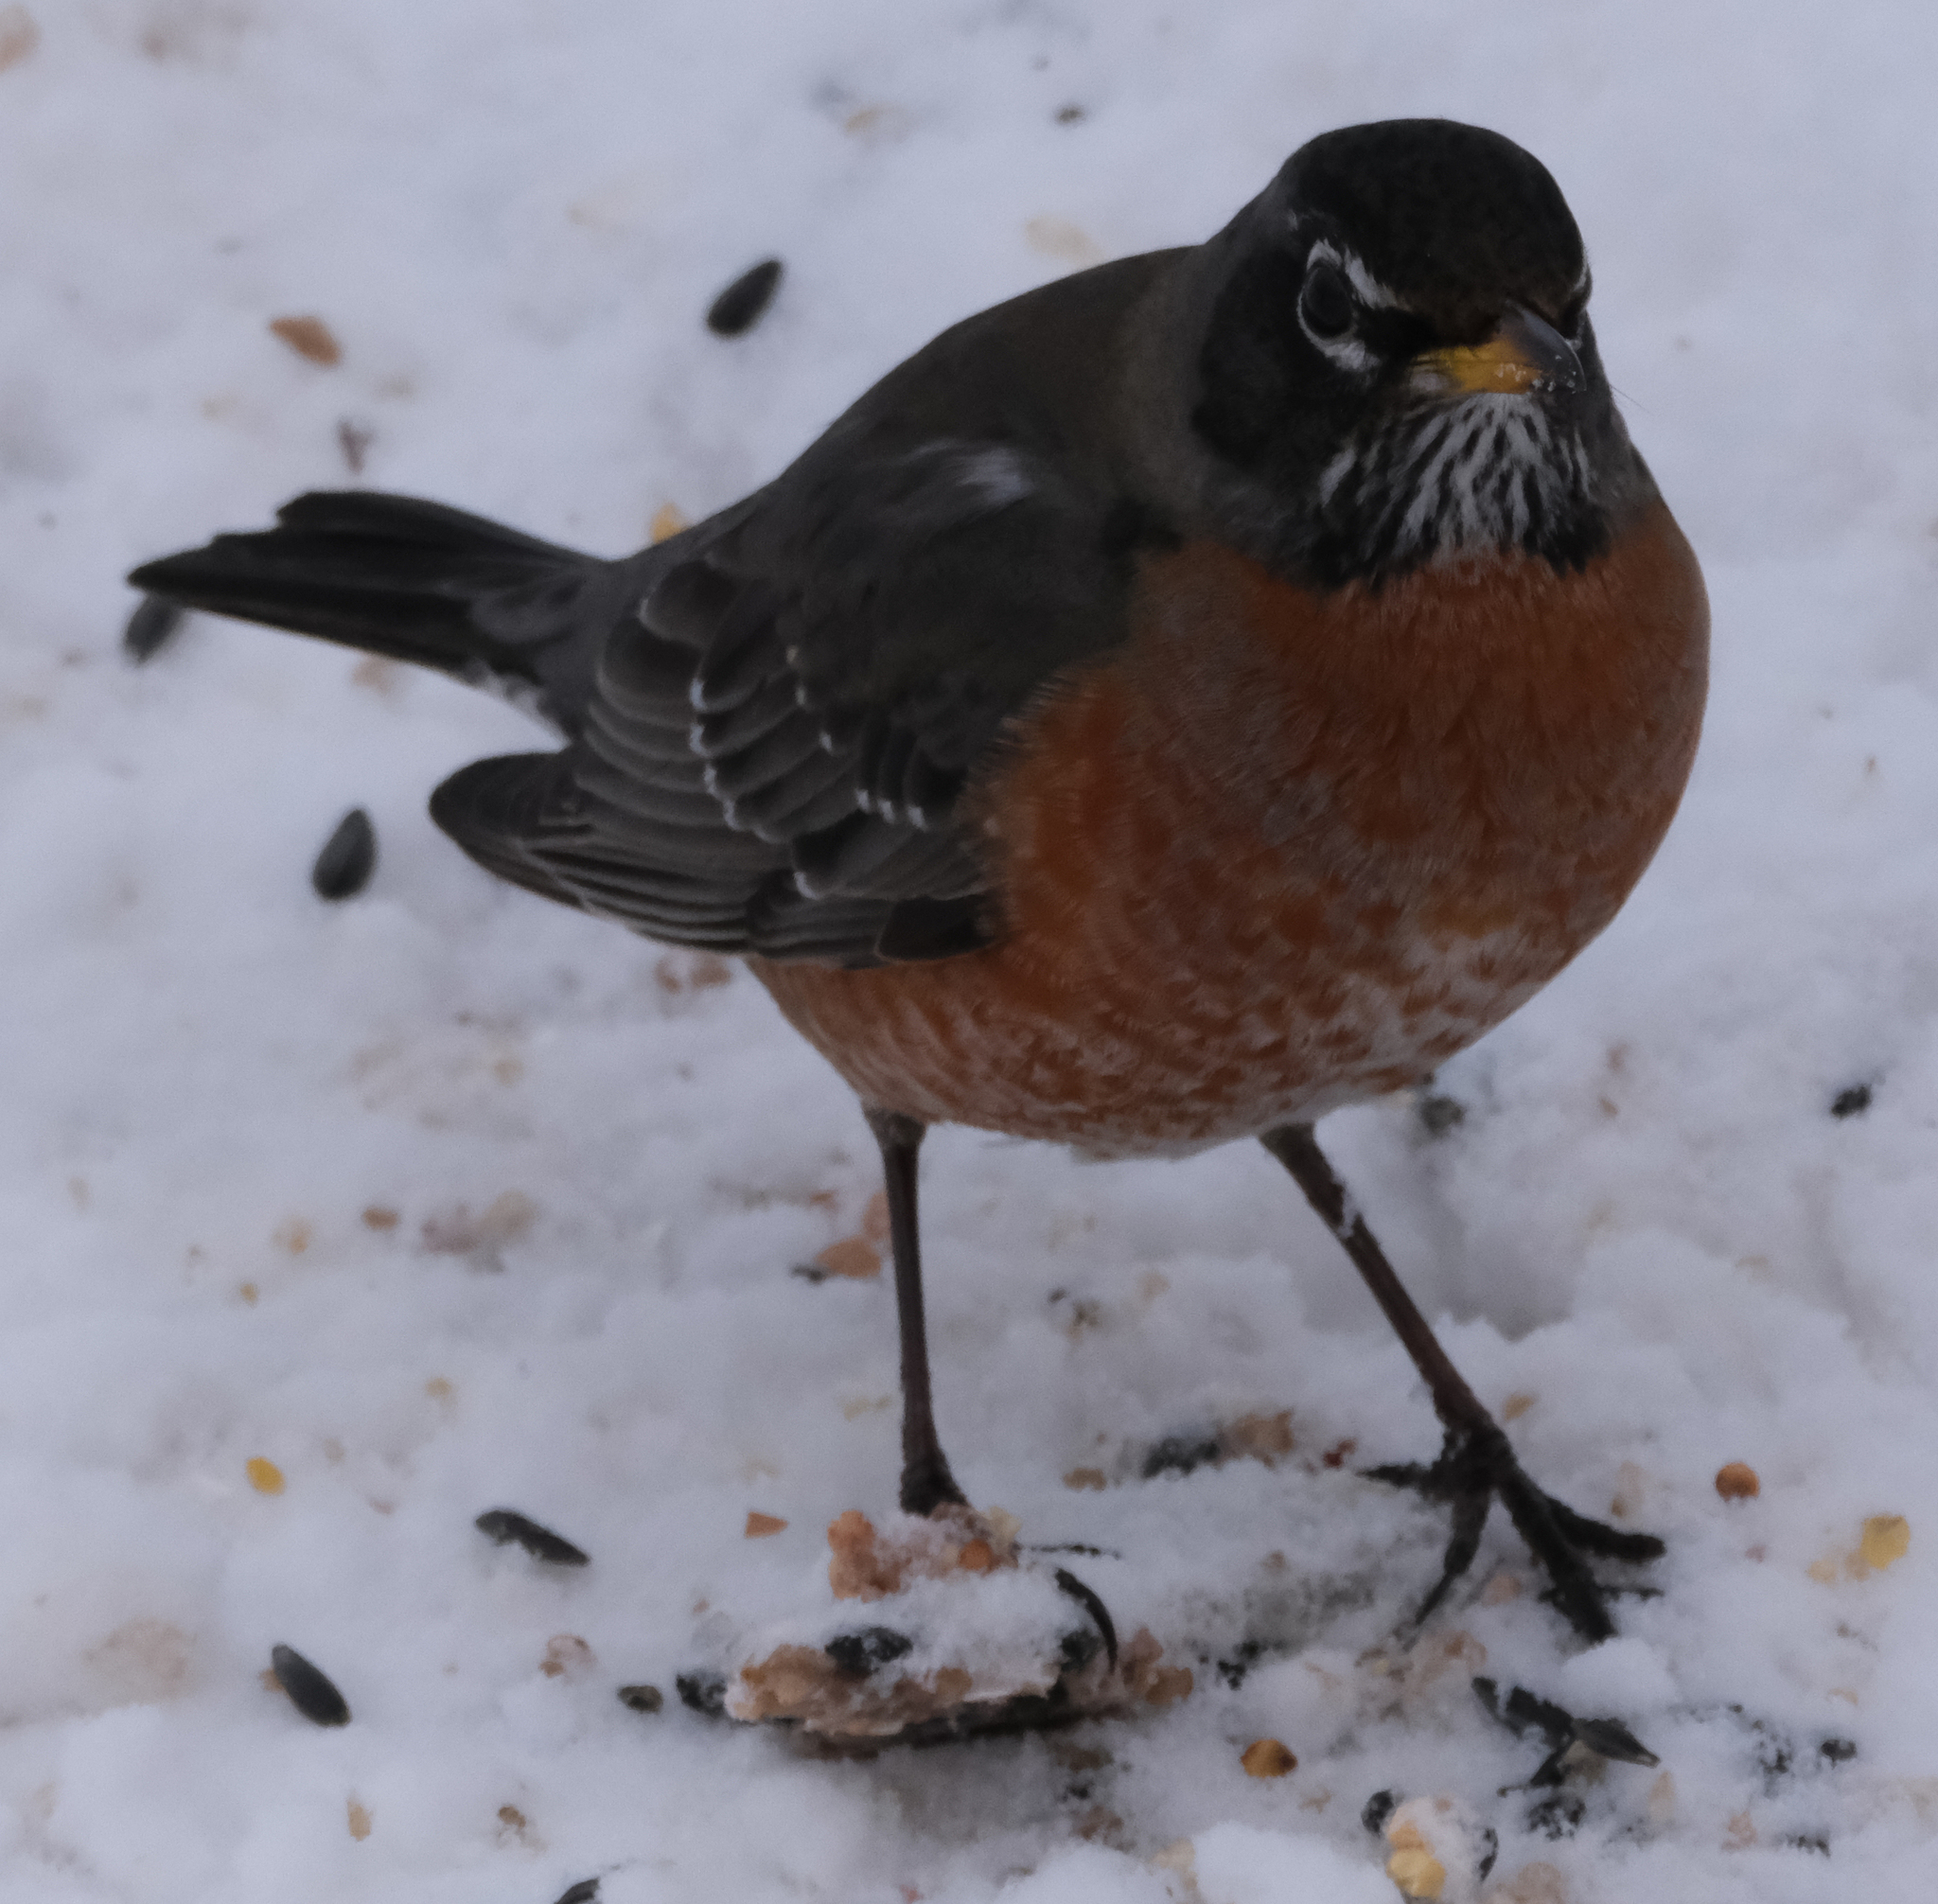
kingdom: Animalia
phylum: Chordata
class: Aves
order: Passeriformes
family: Turdidae
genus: Turdus
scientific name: Turdus migratorius
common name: American robin
